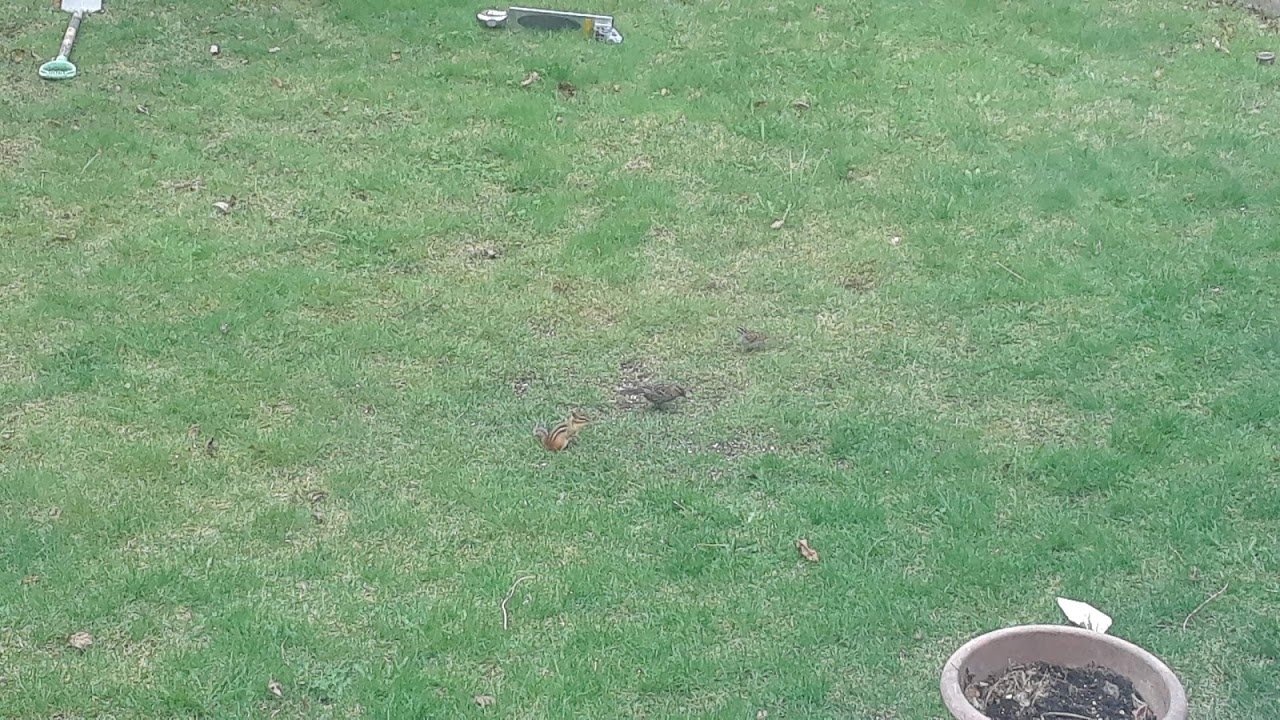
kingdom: Animalia
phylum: Chordata
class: Mammalia
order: Rodentia
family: Sciuridae
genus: Tamias
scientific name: Tamias striatus
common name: Eastern chipmunk
